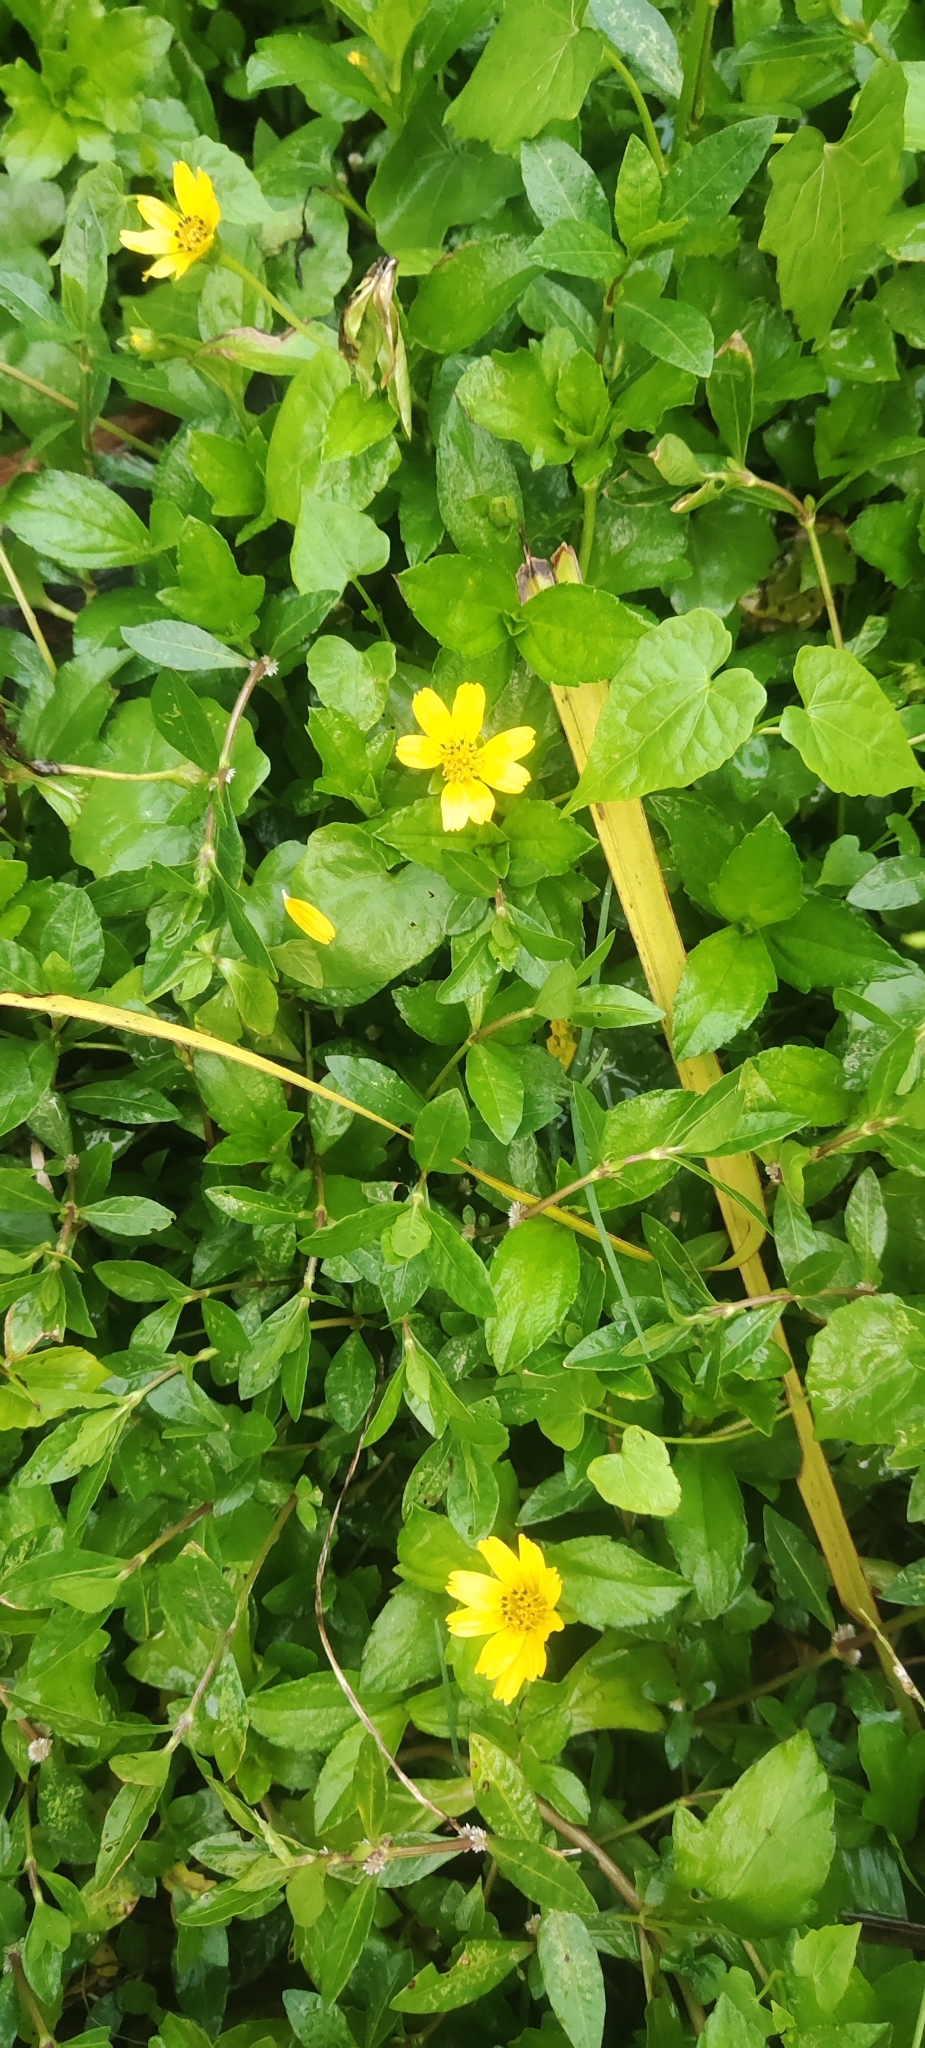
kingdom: Plantae
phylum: Tracheophyta
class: Magnoliopsida
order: Asterales
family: Asteraceae
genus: Sphagneticola
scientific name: Sphagneticola trilobata
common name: Bay biscayne creeping-oxeye
